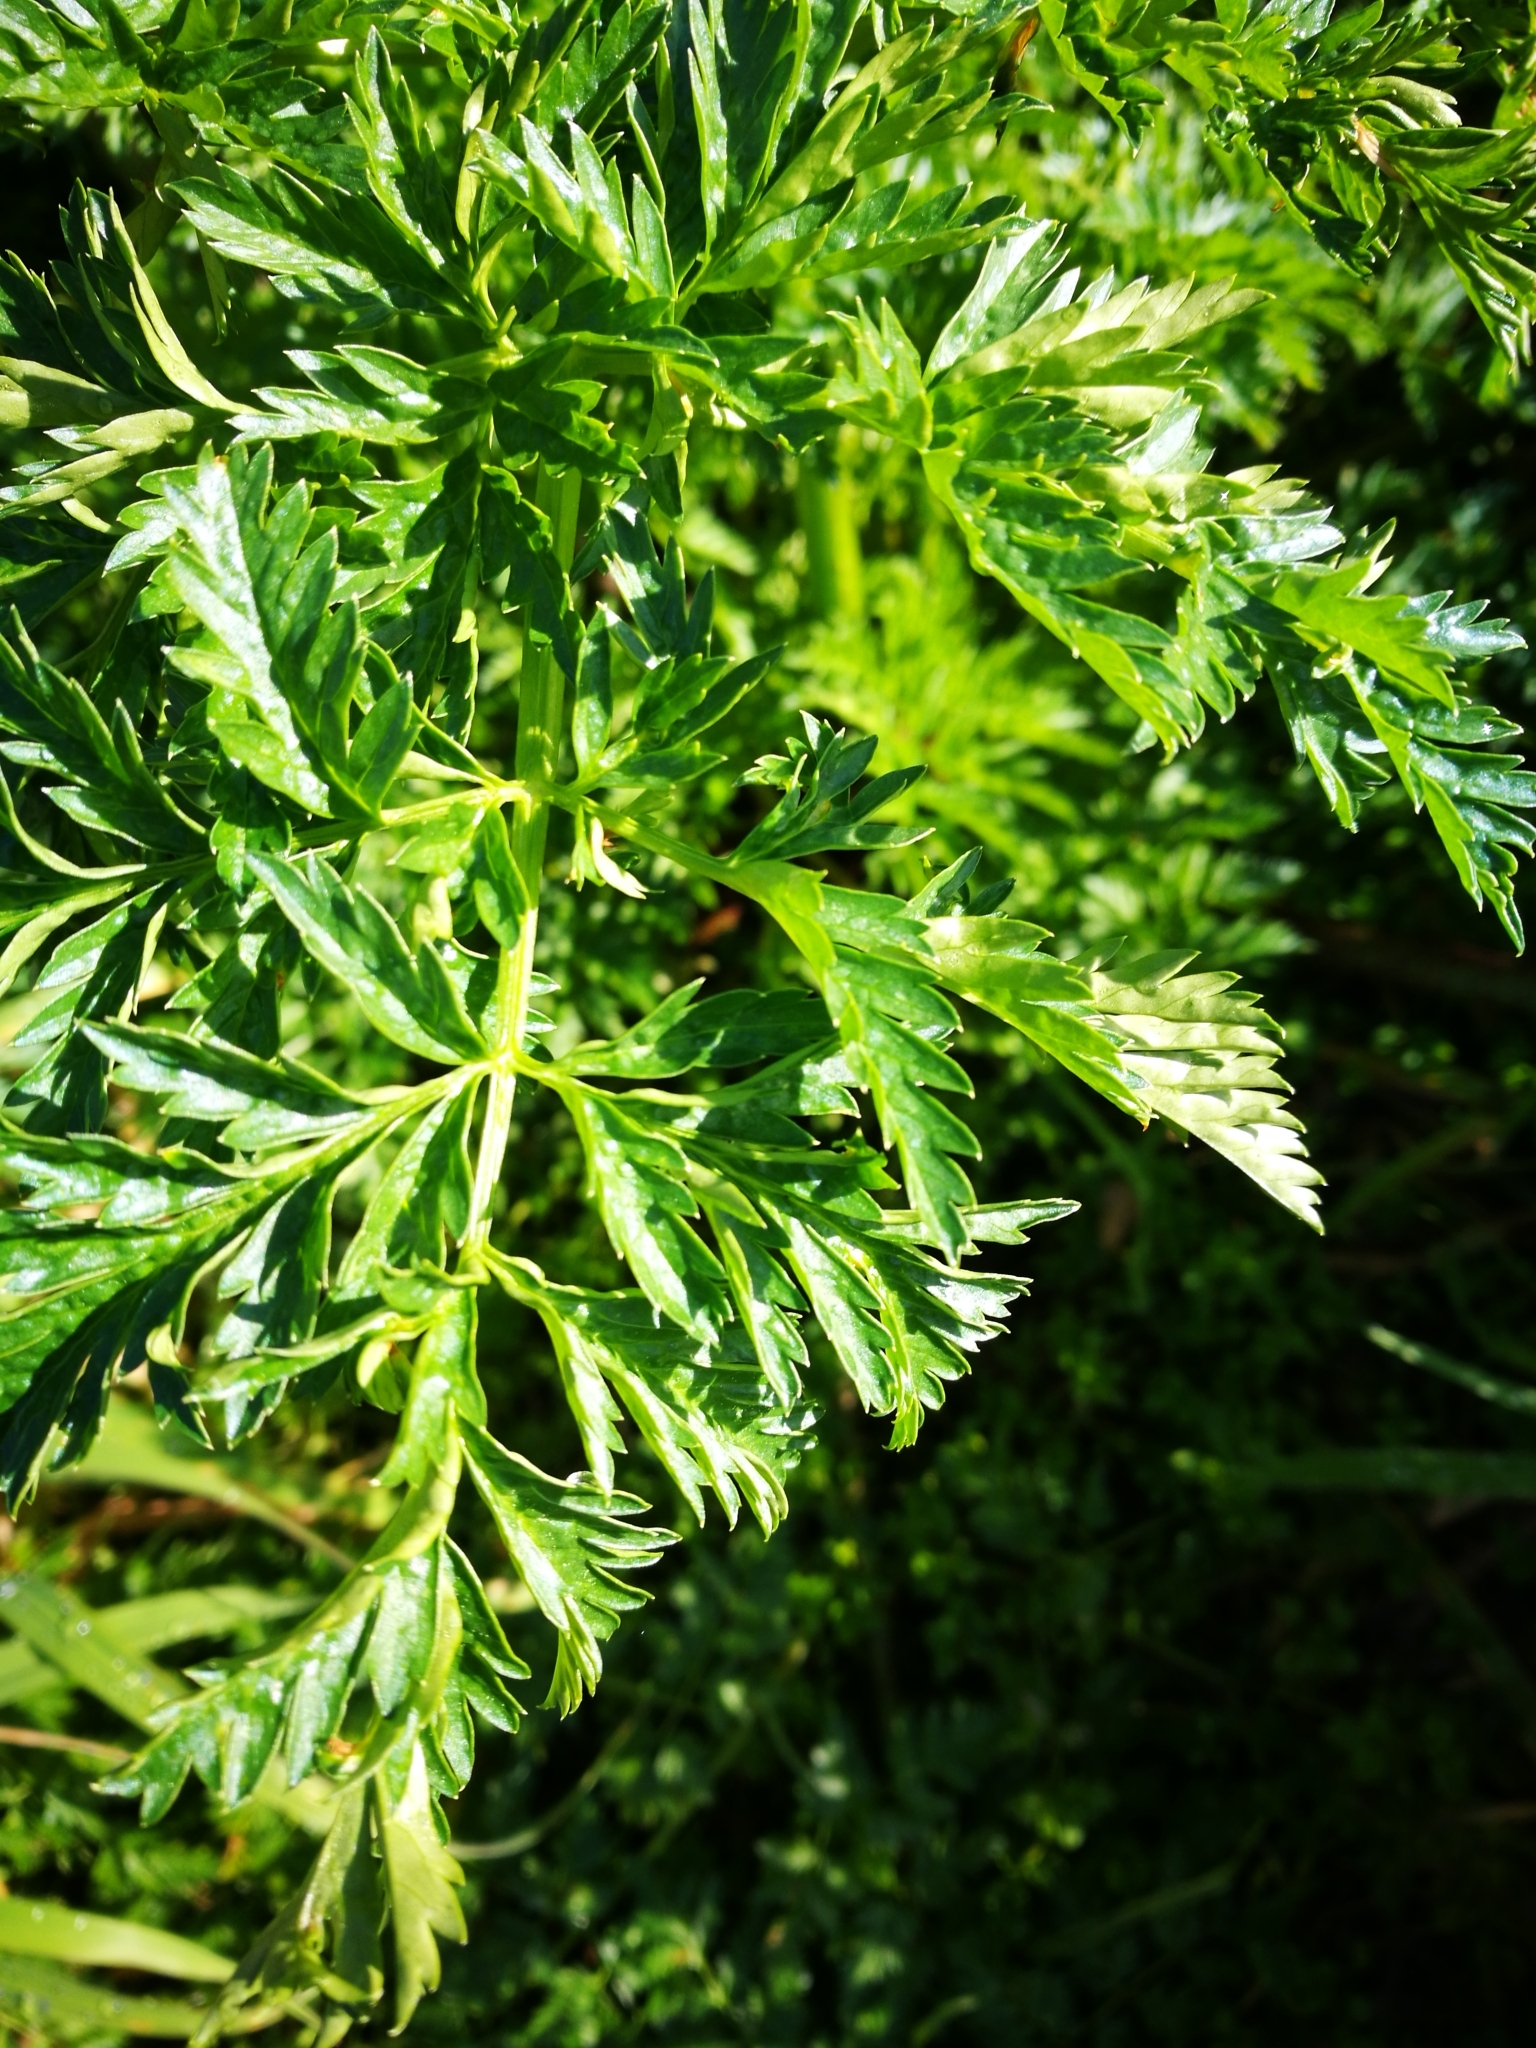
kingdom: Plantae
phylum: Tracheophyta
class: Magnoliopsida
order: Apiales
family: Apiaceae
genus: Conium
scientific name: Conium maculatum
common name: Hemlock
